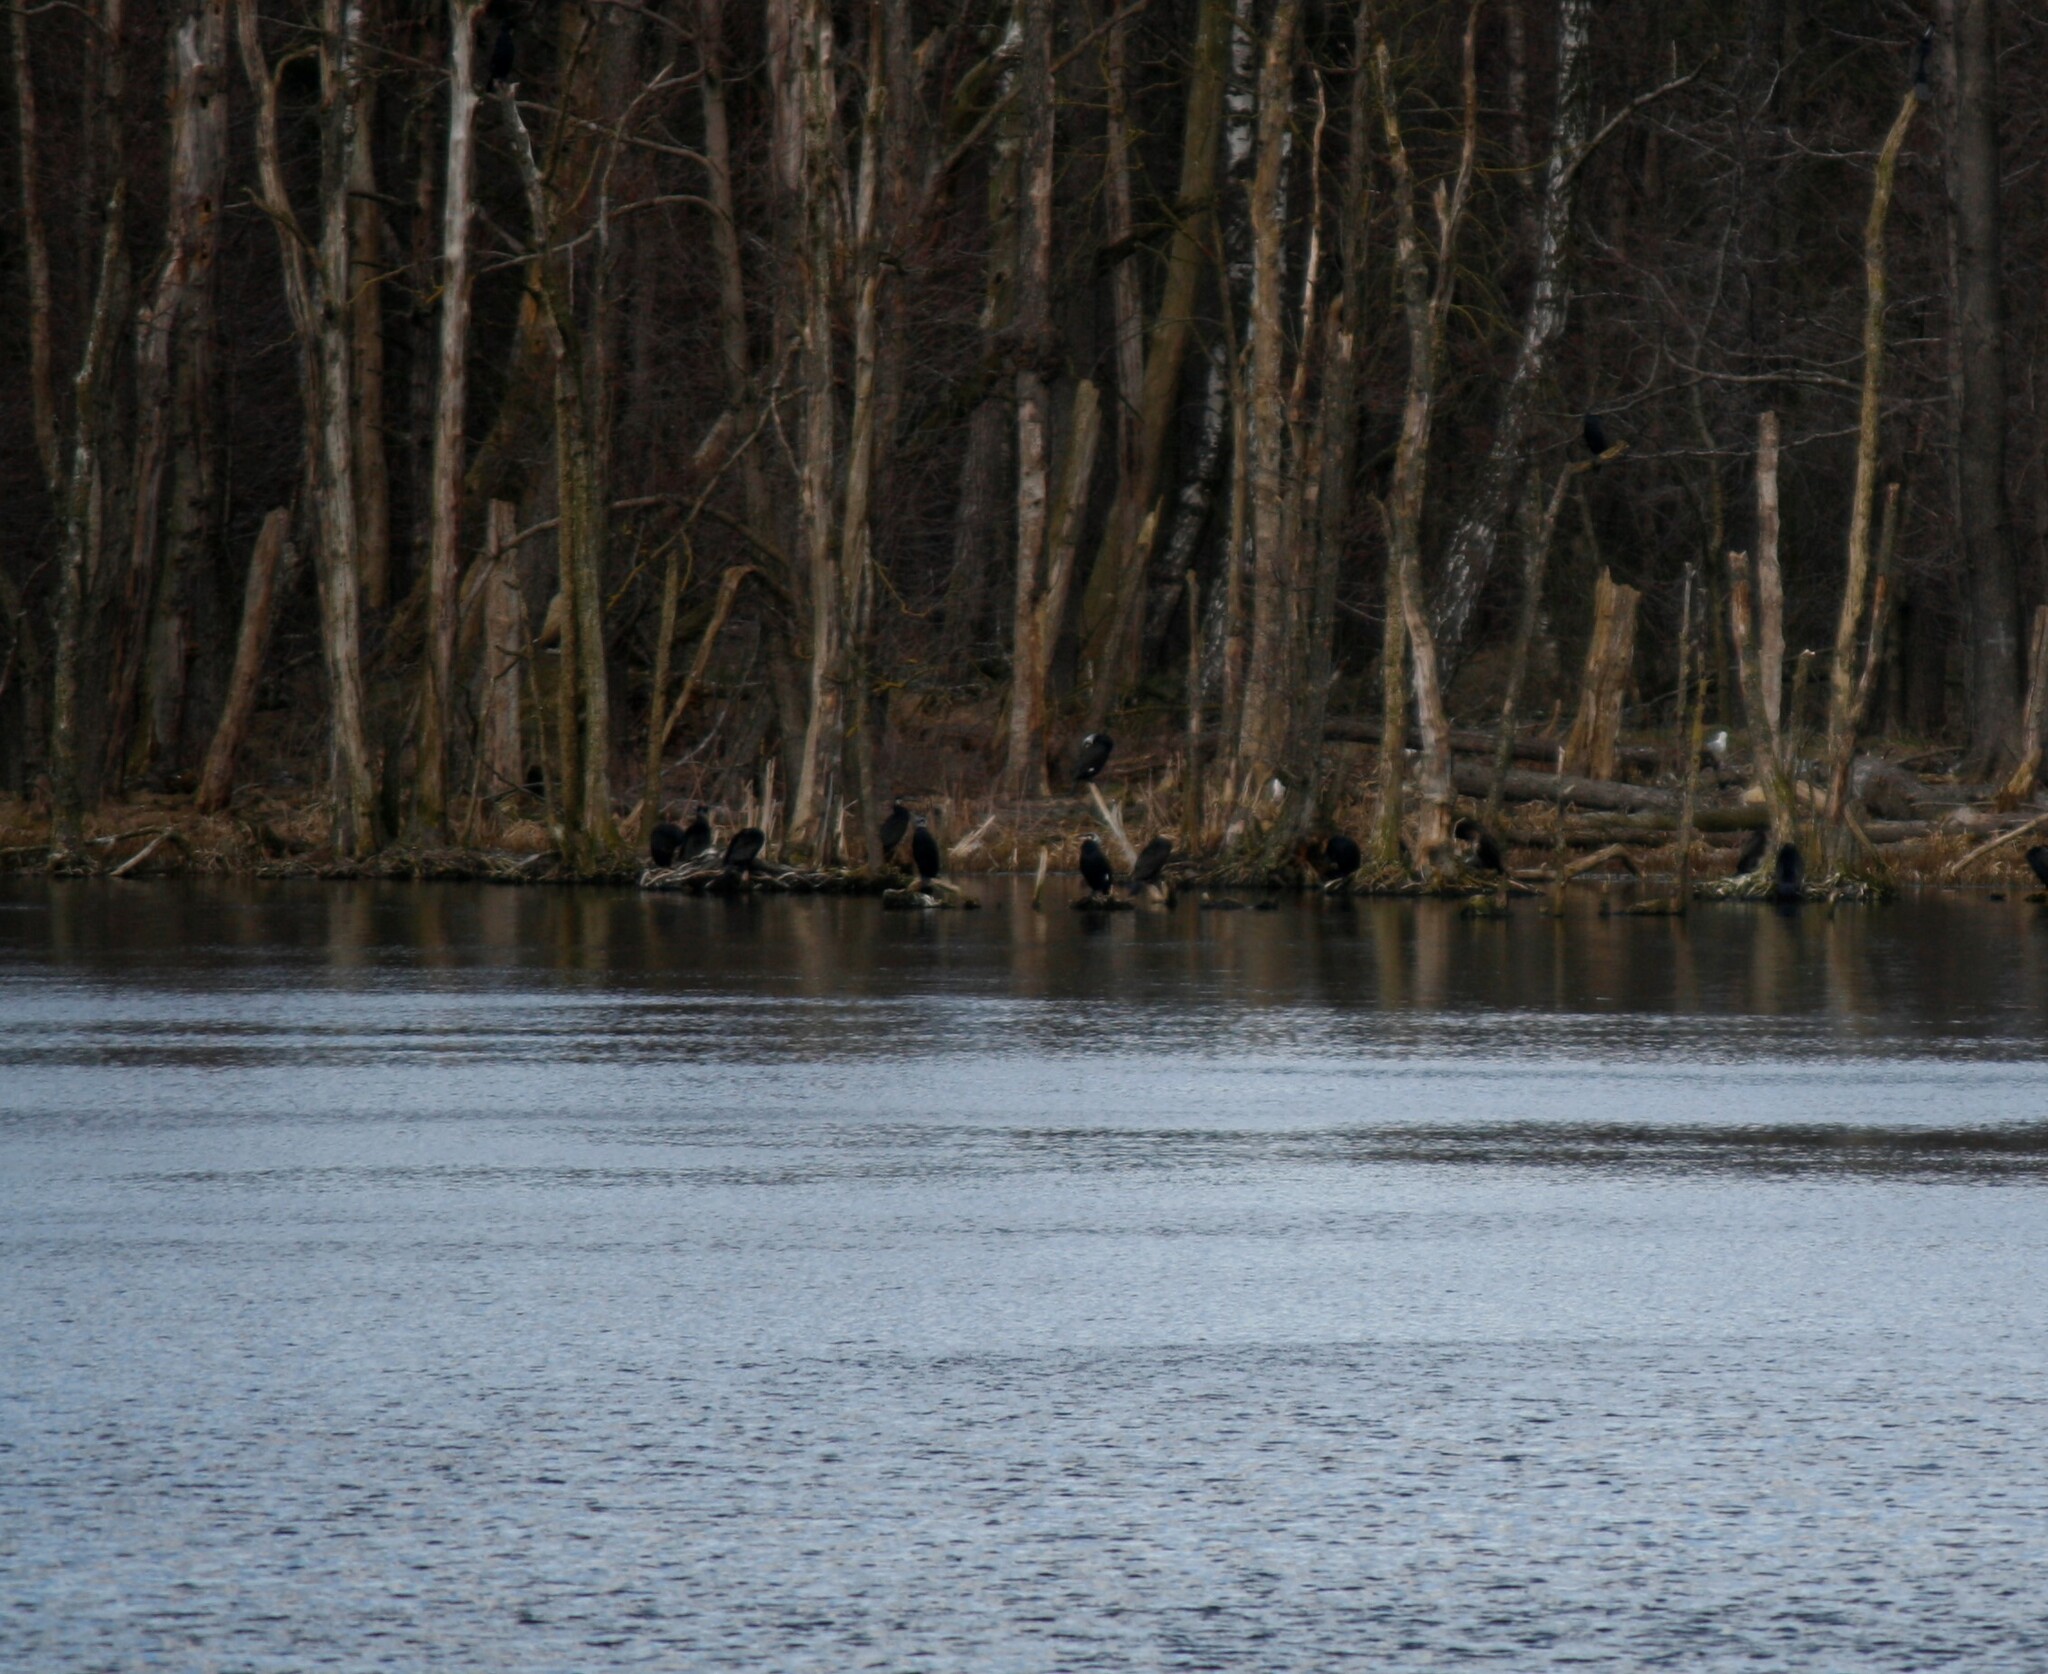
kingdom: Animalia
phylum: Chordata
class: Aves
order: Suliformes
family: Phalacrocoracidae
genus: Phalacrocorax
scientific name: Phalacrocorax carbo
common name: Great cormorant
